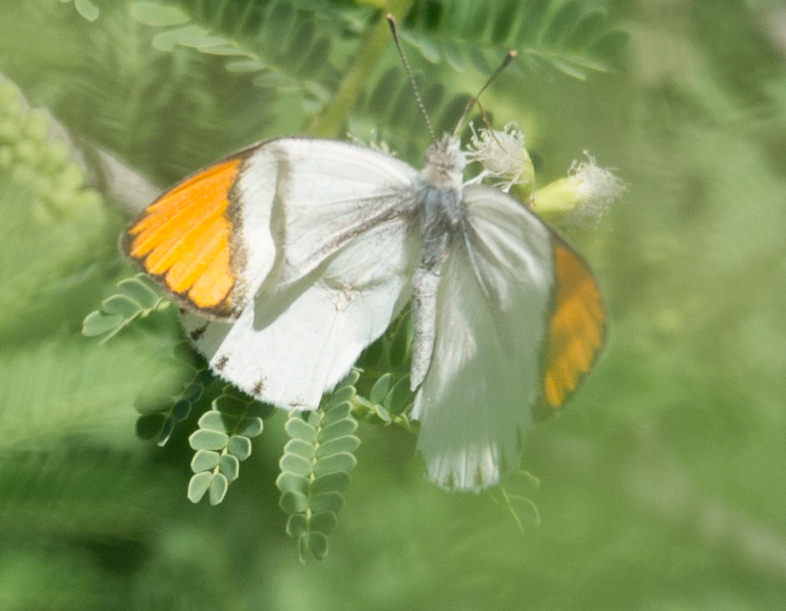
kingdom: Animalia
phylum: Arthropoda
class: Insecta
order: Lepidoptera
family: Pieridae
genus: Colotis
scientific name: Colotis evenina
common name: Common orange tip
